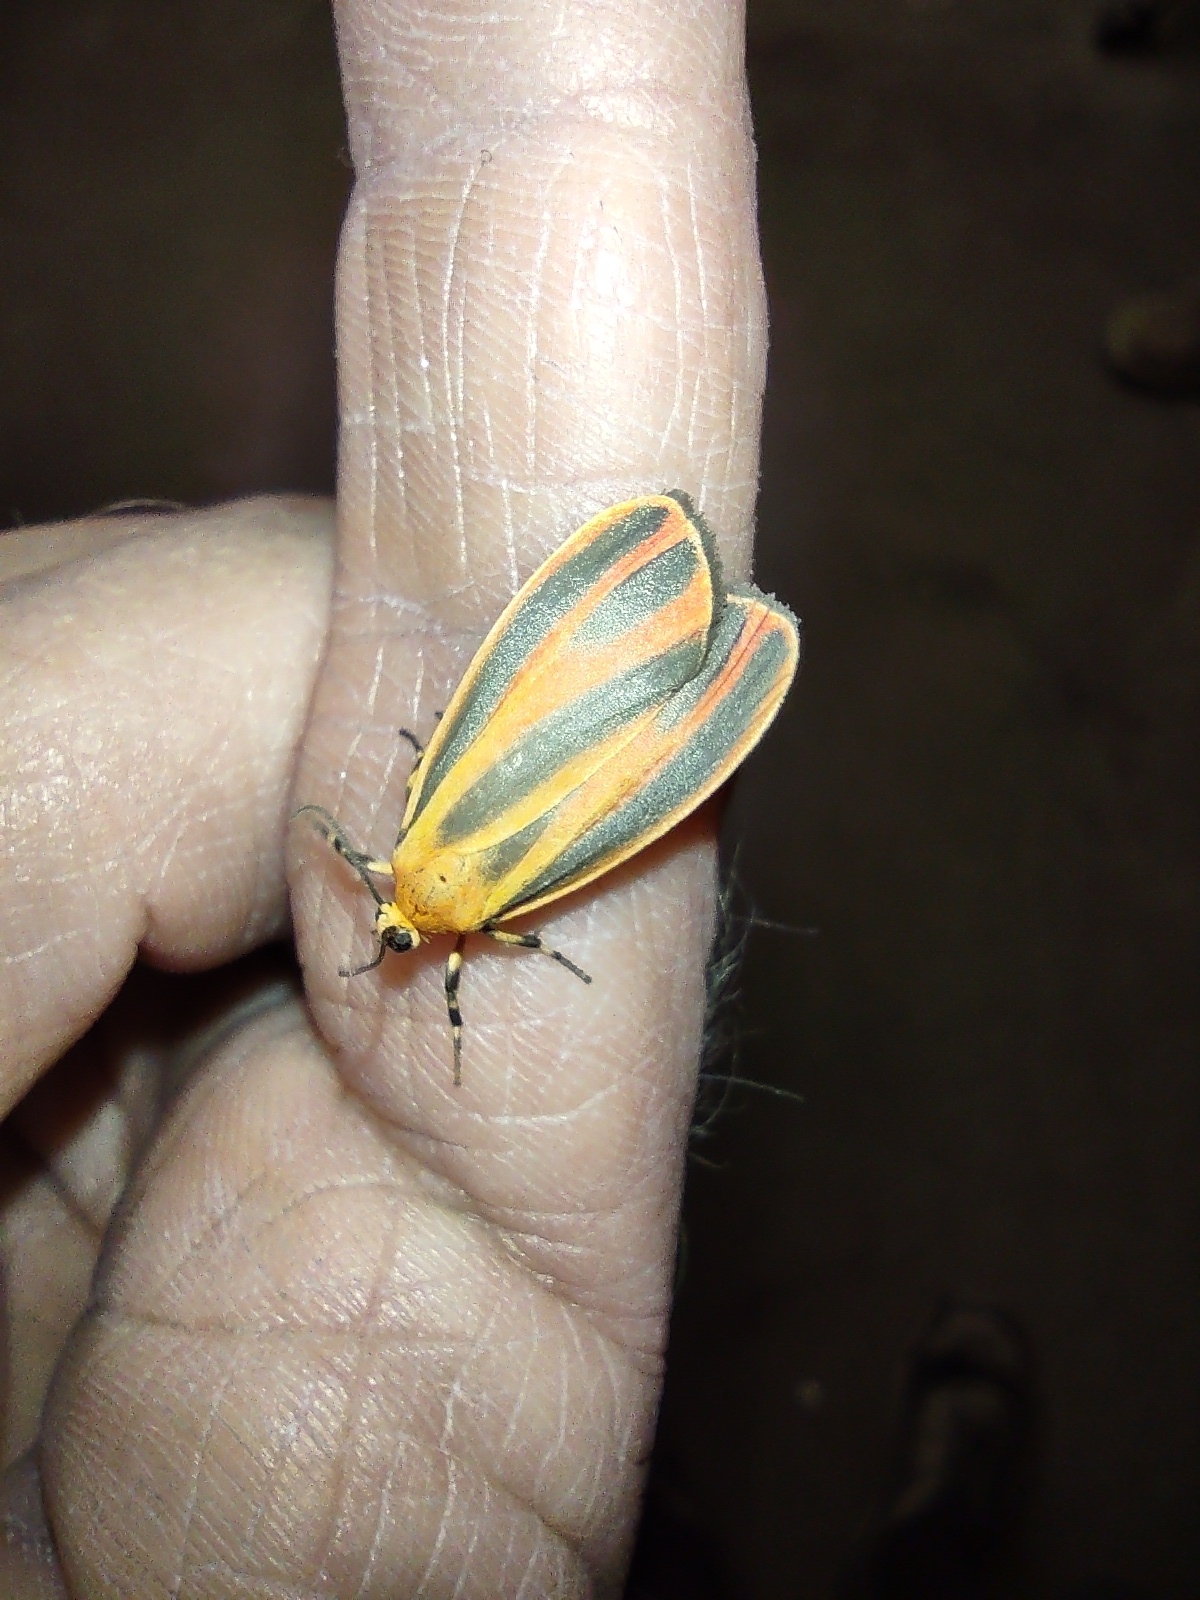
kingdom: Animalia
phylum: Arthropoda
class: Insecta
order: Lepidoptera
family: Erebidae
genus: Hypoprepia
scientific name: Hypoprepia fucosa
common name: Painted lichen moth
